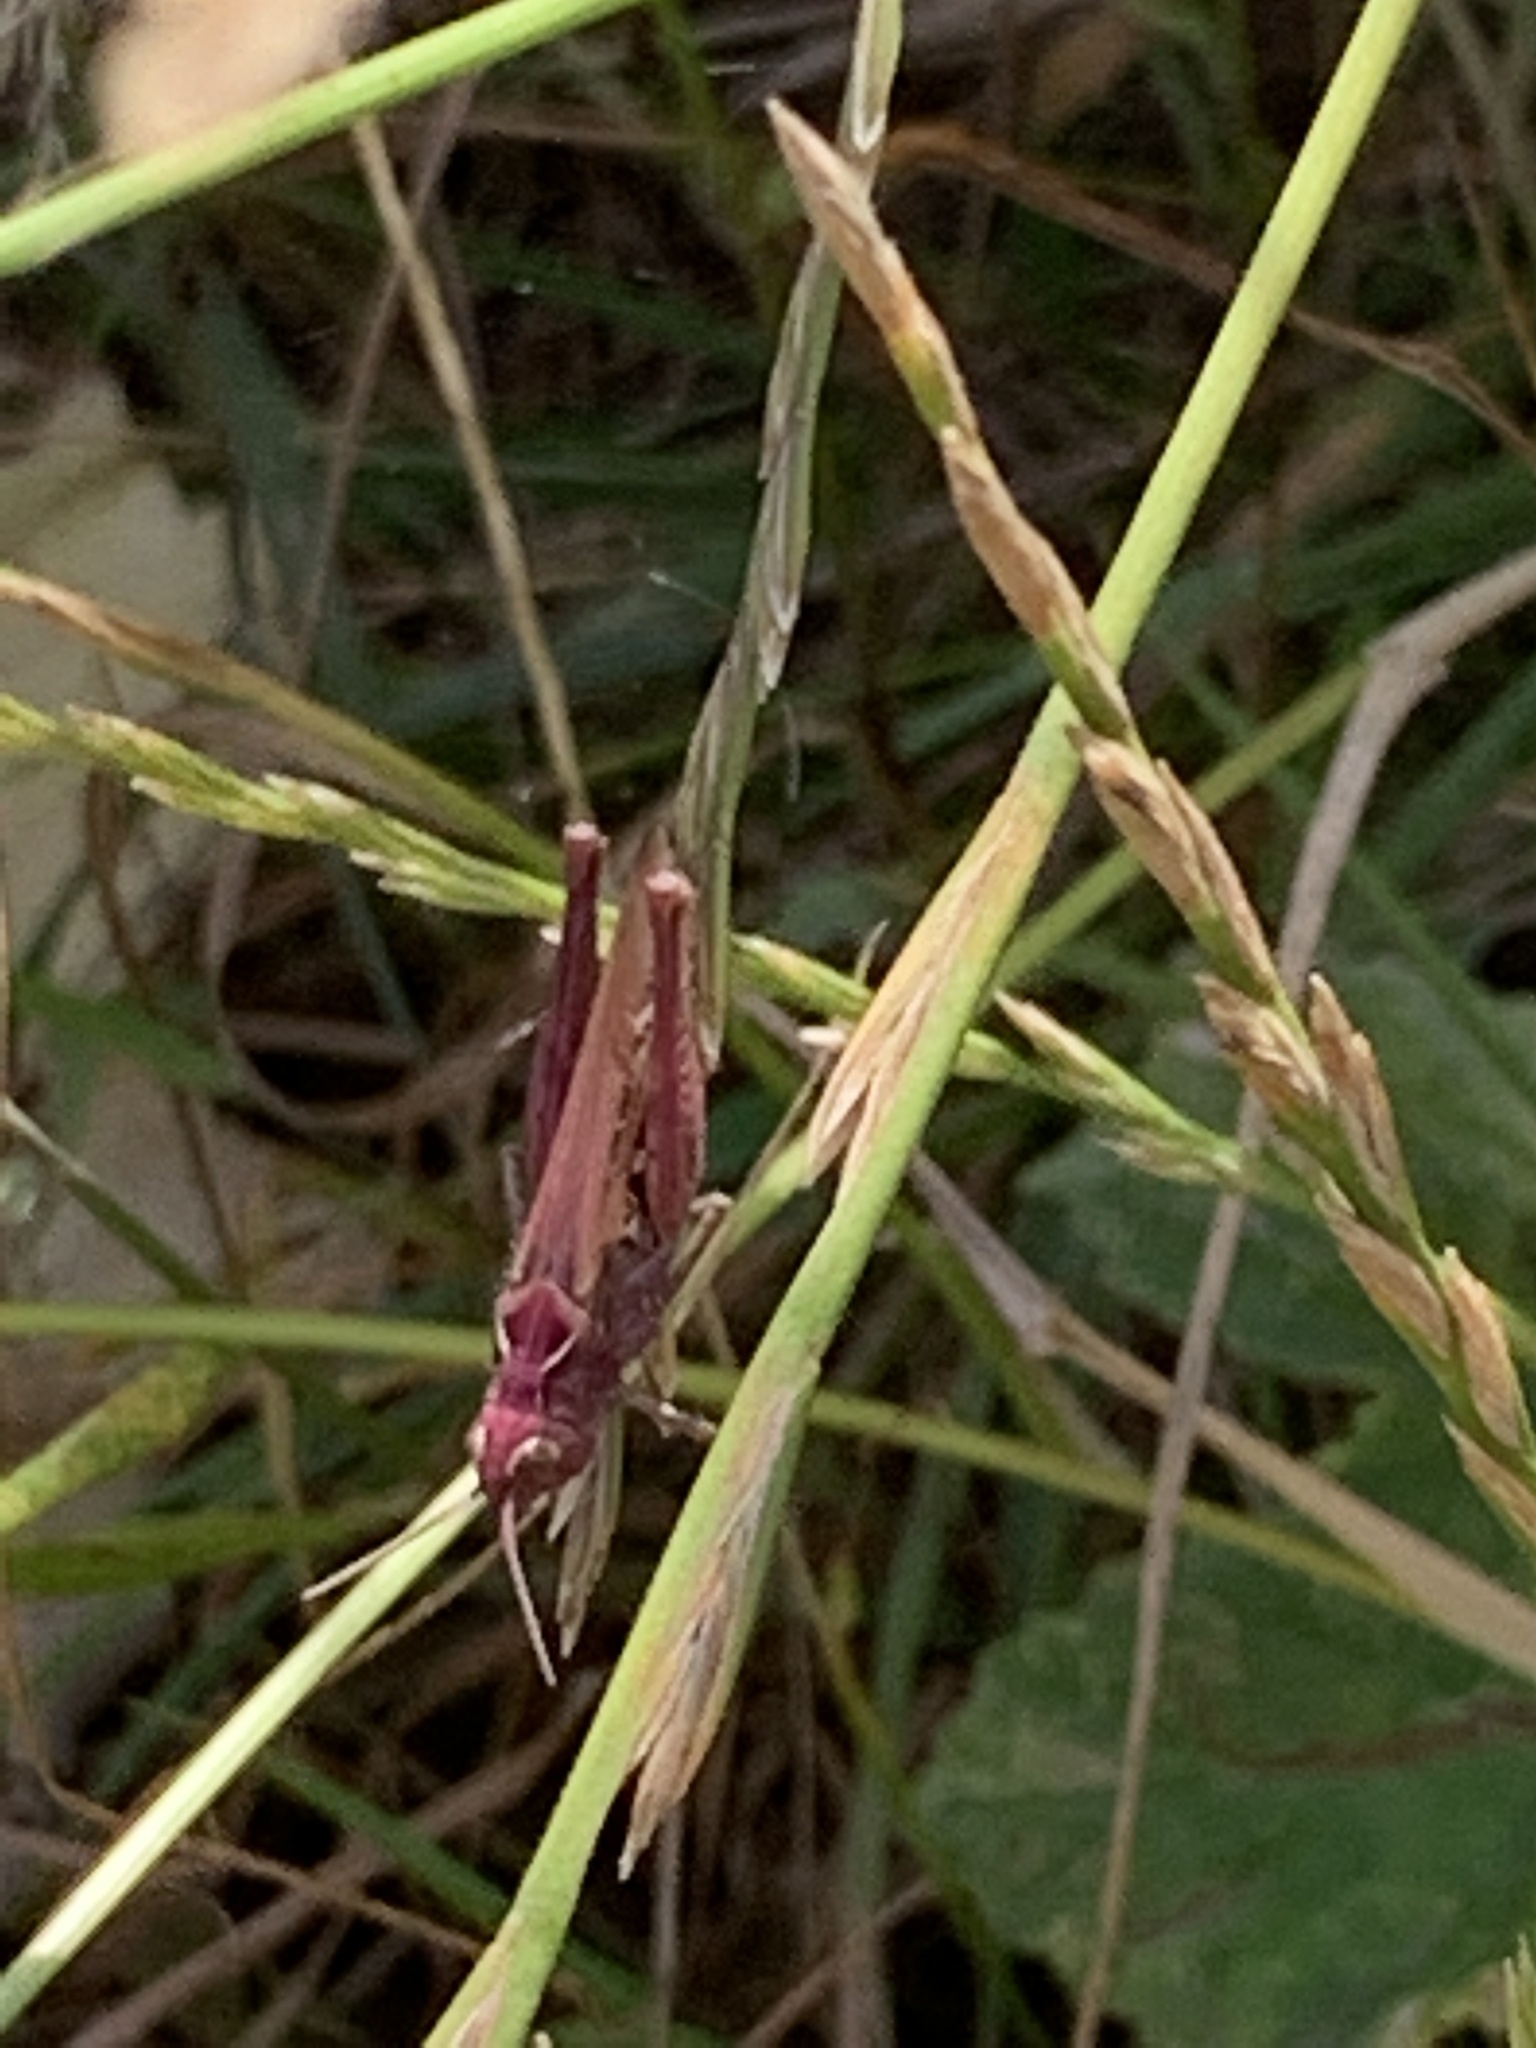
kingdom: Animalia
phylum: Arthropoda
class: Insecta
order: Orthoptera
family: Acrididae
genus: Chorthippus
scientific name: Chorthippus brunneus
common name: Field grasshopper
